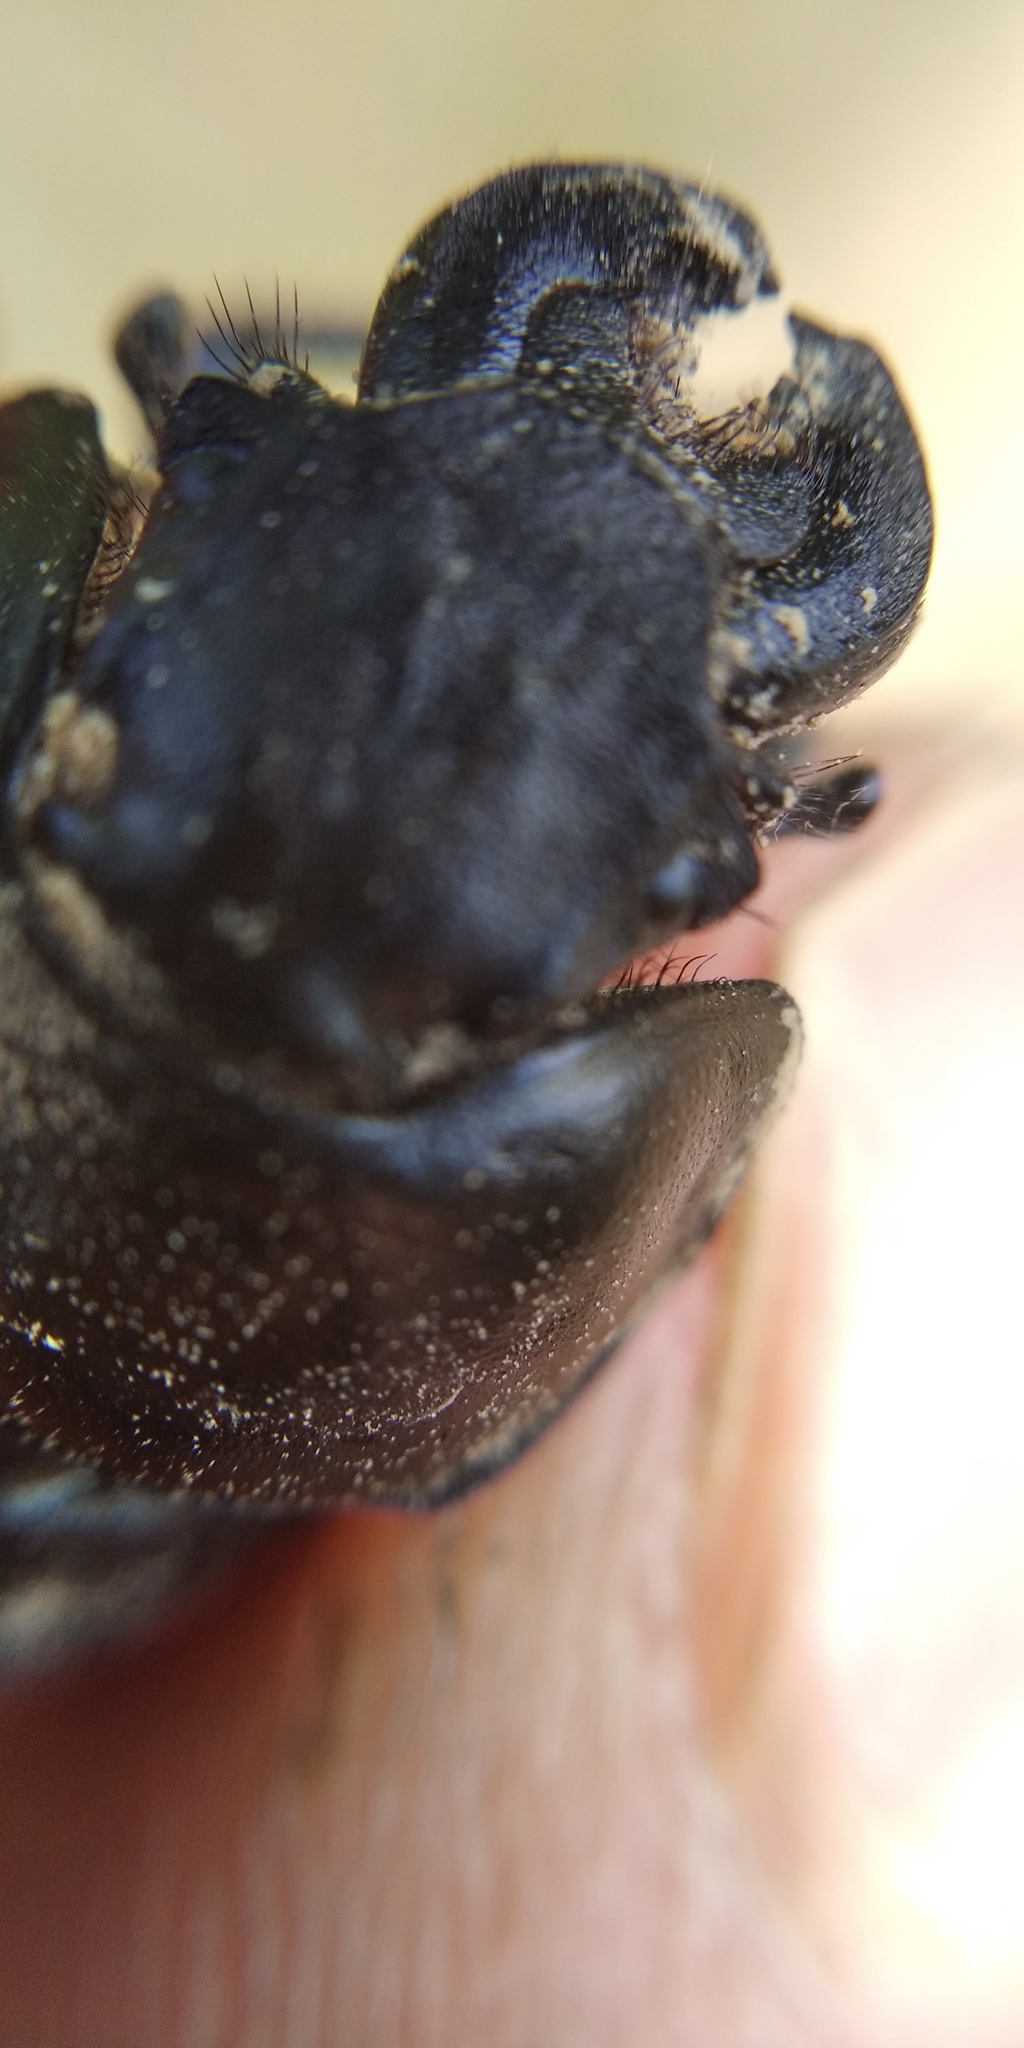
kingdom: Animalia
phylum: Arthropoda
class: Insecta
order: Coleoptera
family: Geotrupidae
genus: Lethrus
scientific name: Lethrus apterus
